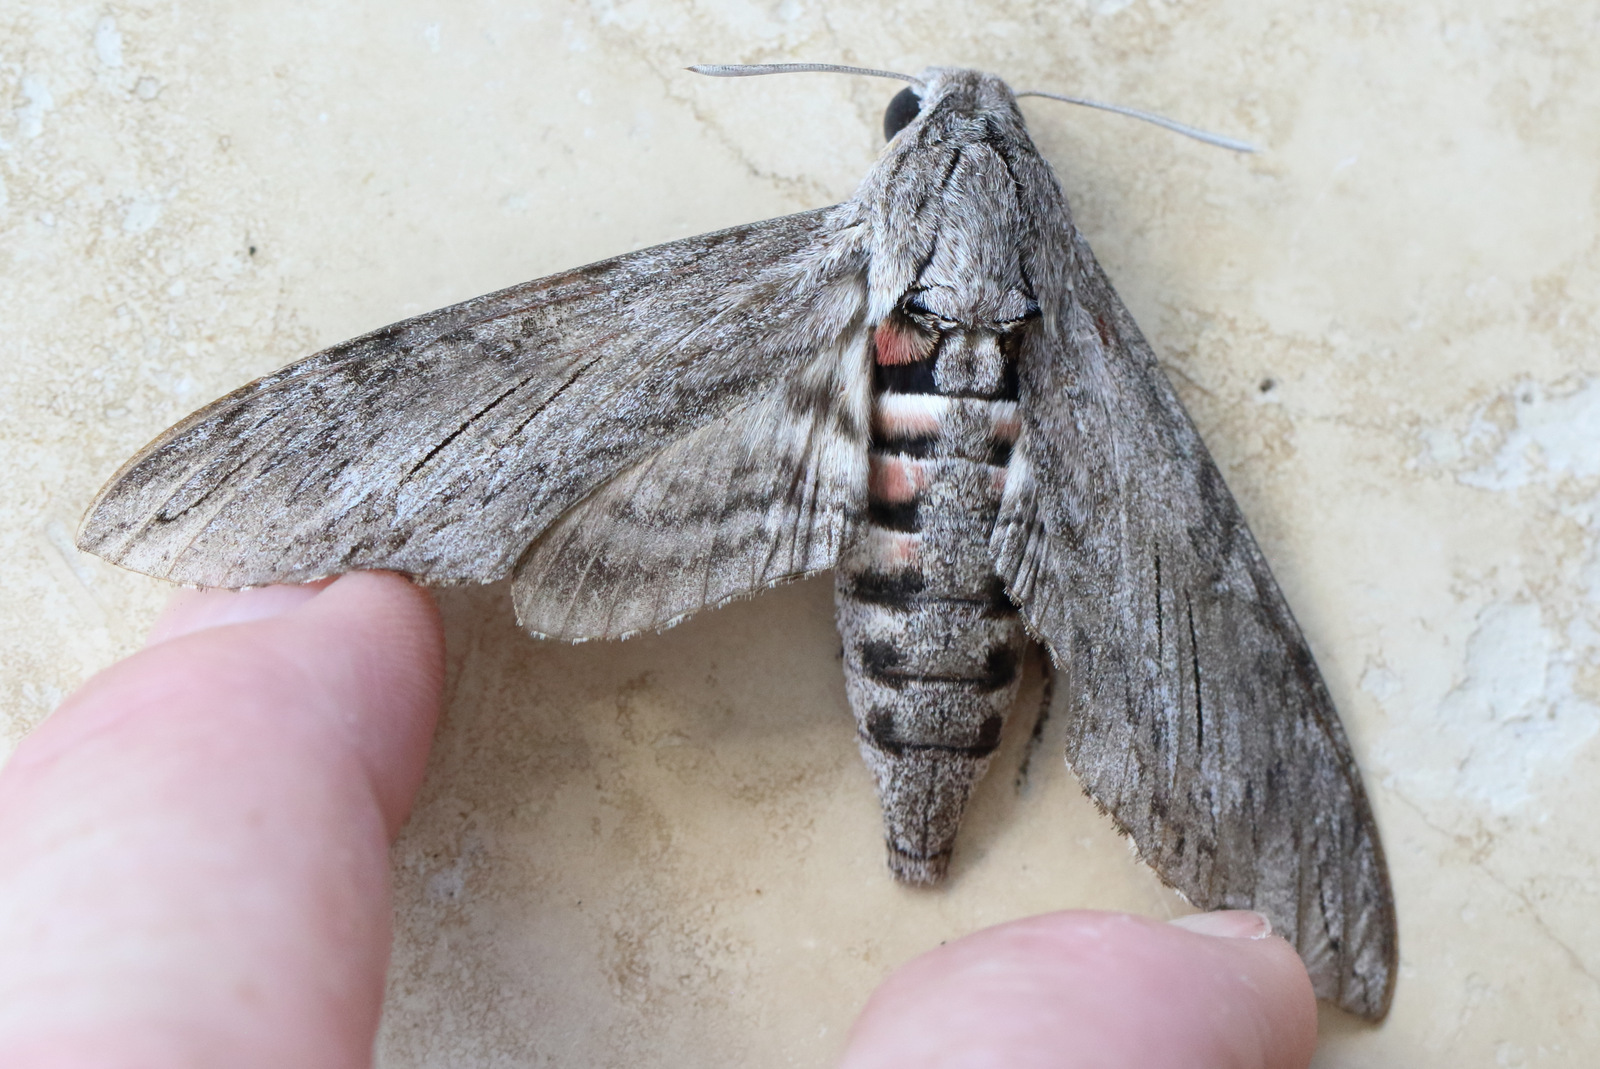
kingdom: Animalia
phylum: Arthropoda
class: Insecta
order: Lepidoptera
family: Sphingidae
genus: Agrius
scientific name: Agrius convolvuli
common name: Convolvulus hawkmoth
